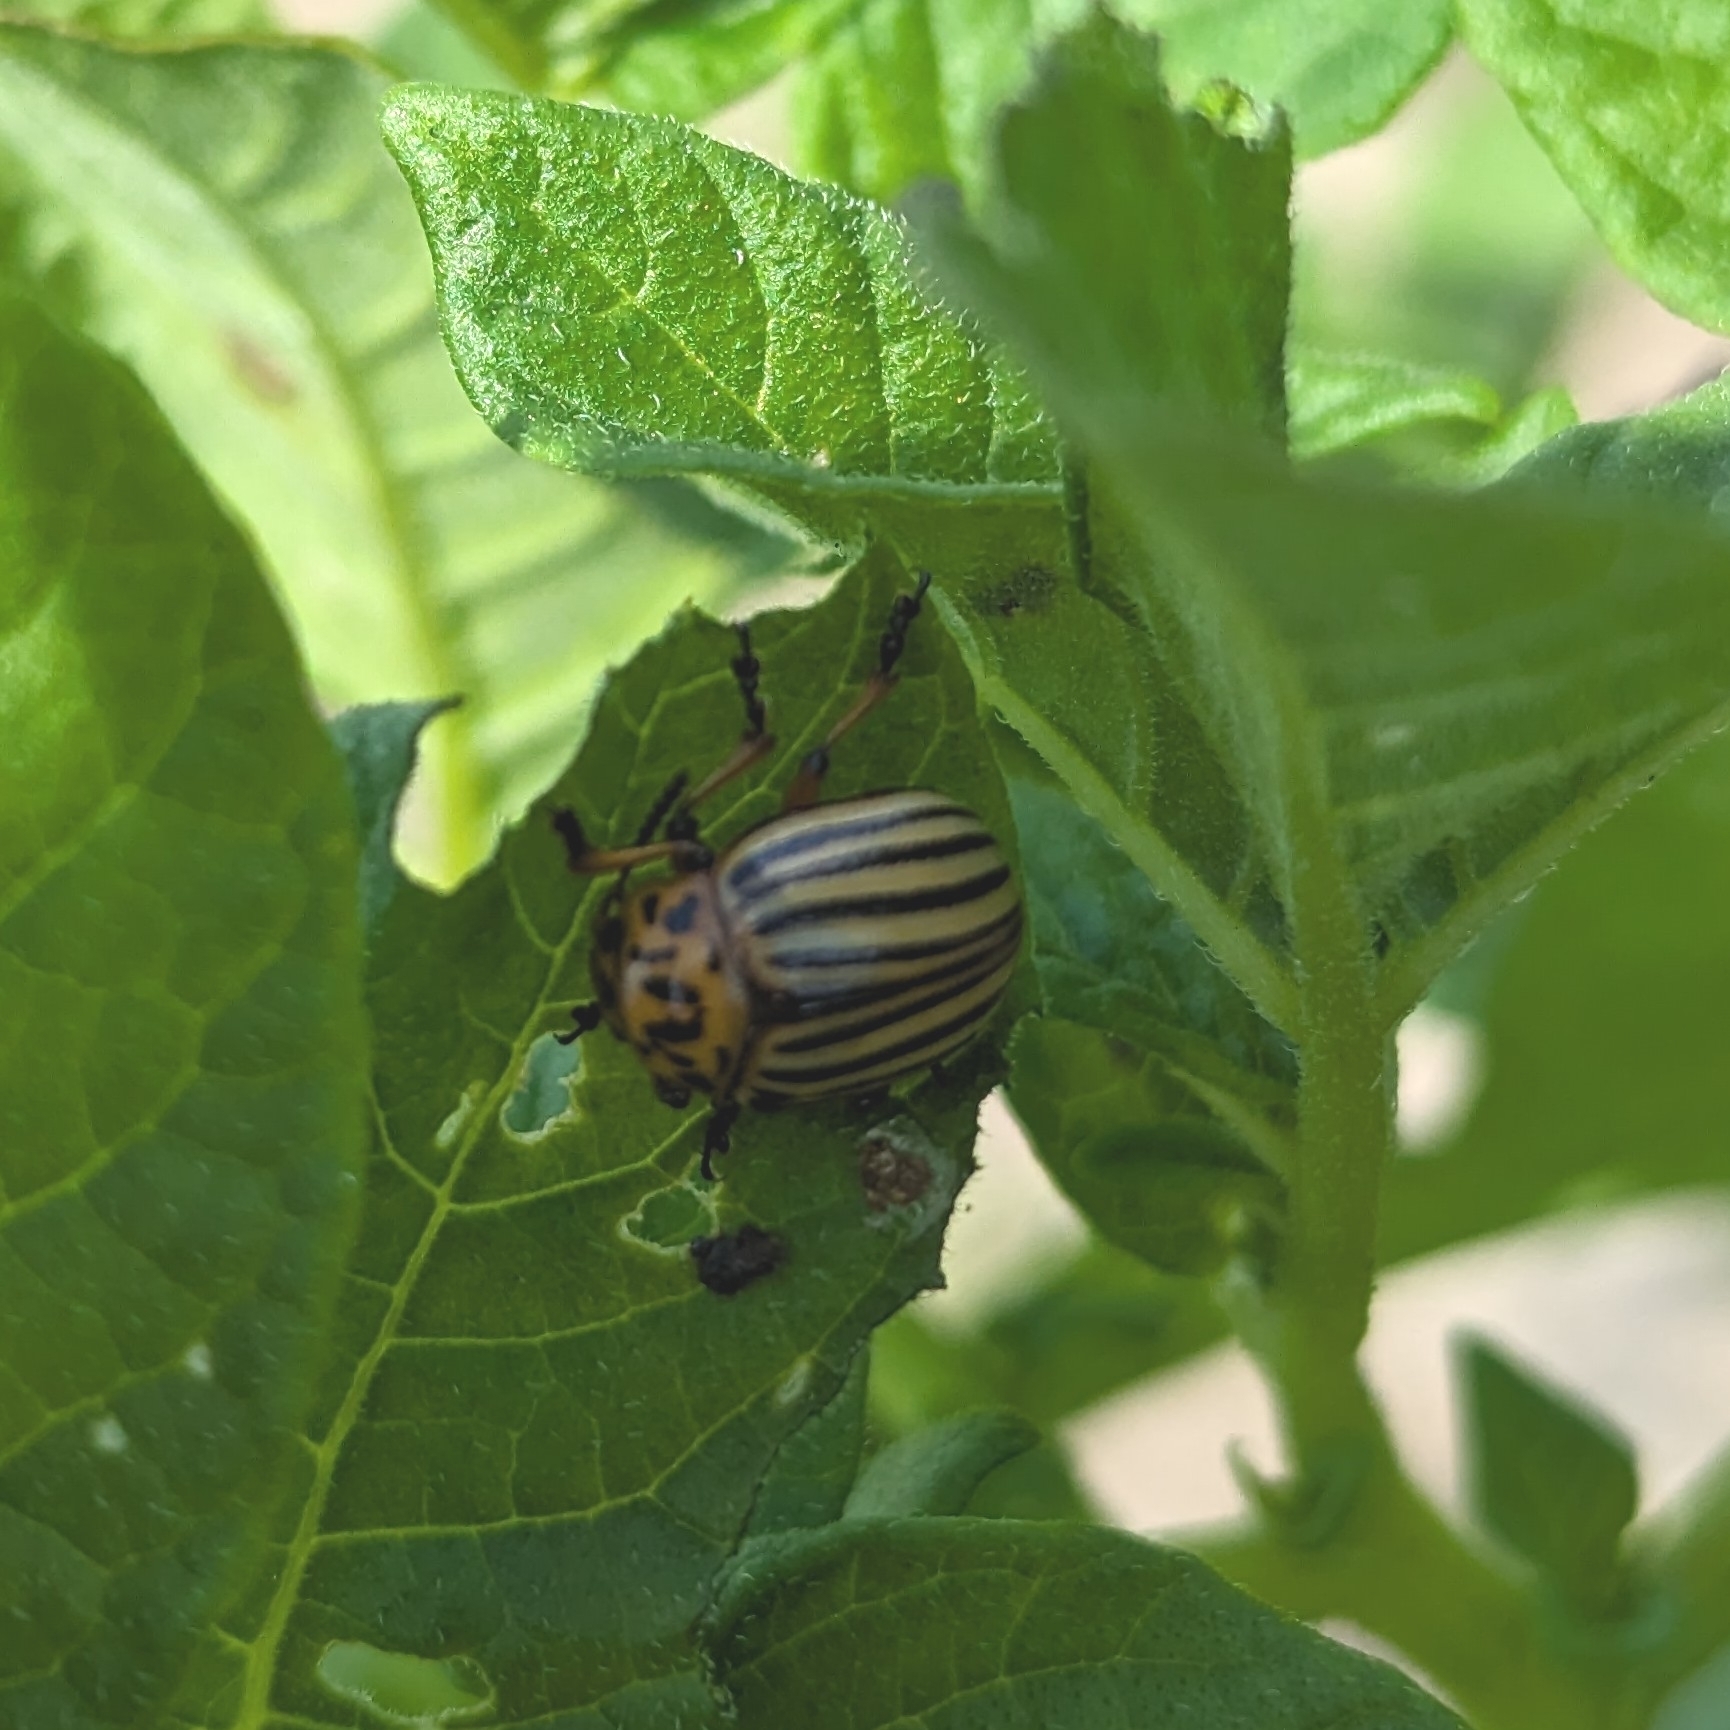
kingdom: Animalia
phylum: Arthropoda
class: Insecta
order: Coleoptera
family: Chrysomelidae
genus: Leptinotarsa
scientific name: Leptinotarsa decemlineata
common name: Colorado potato beetle
